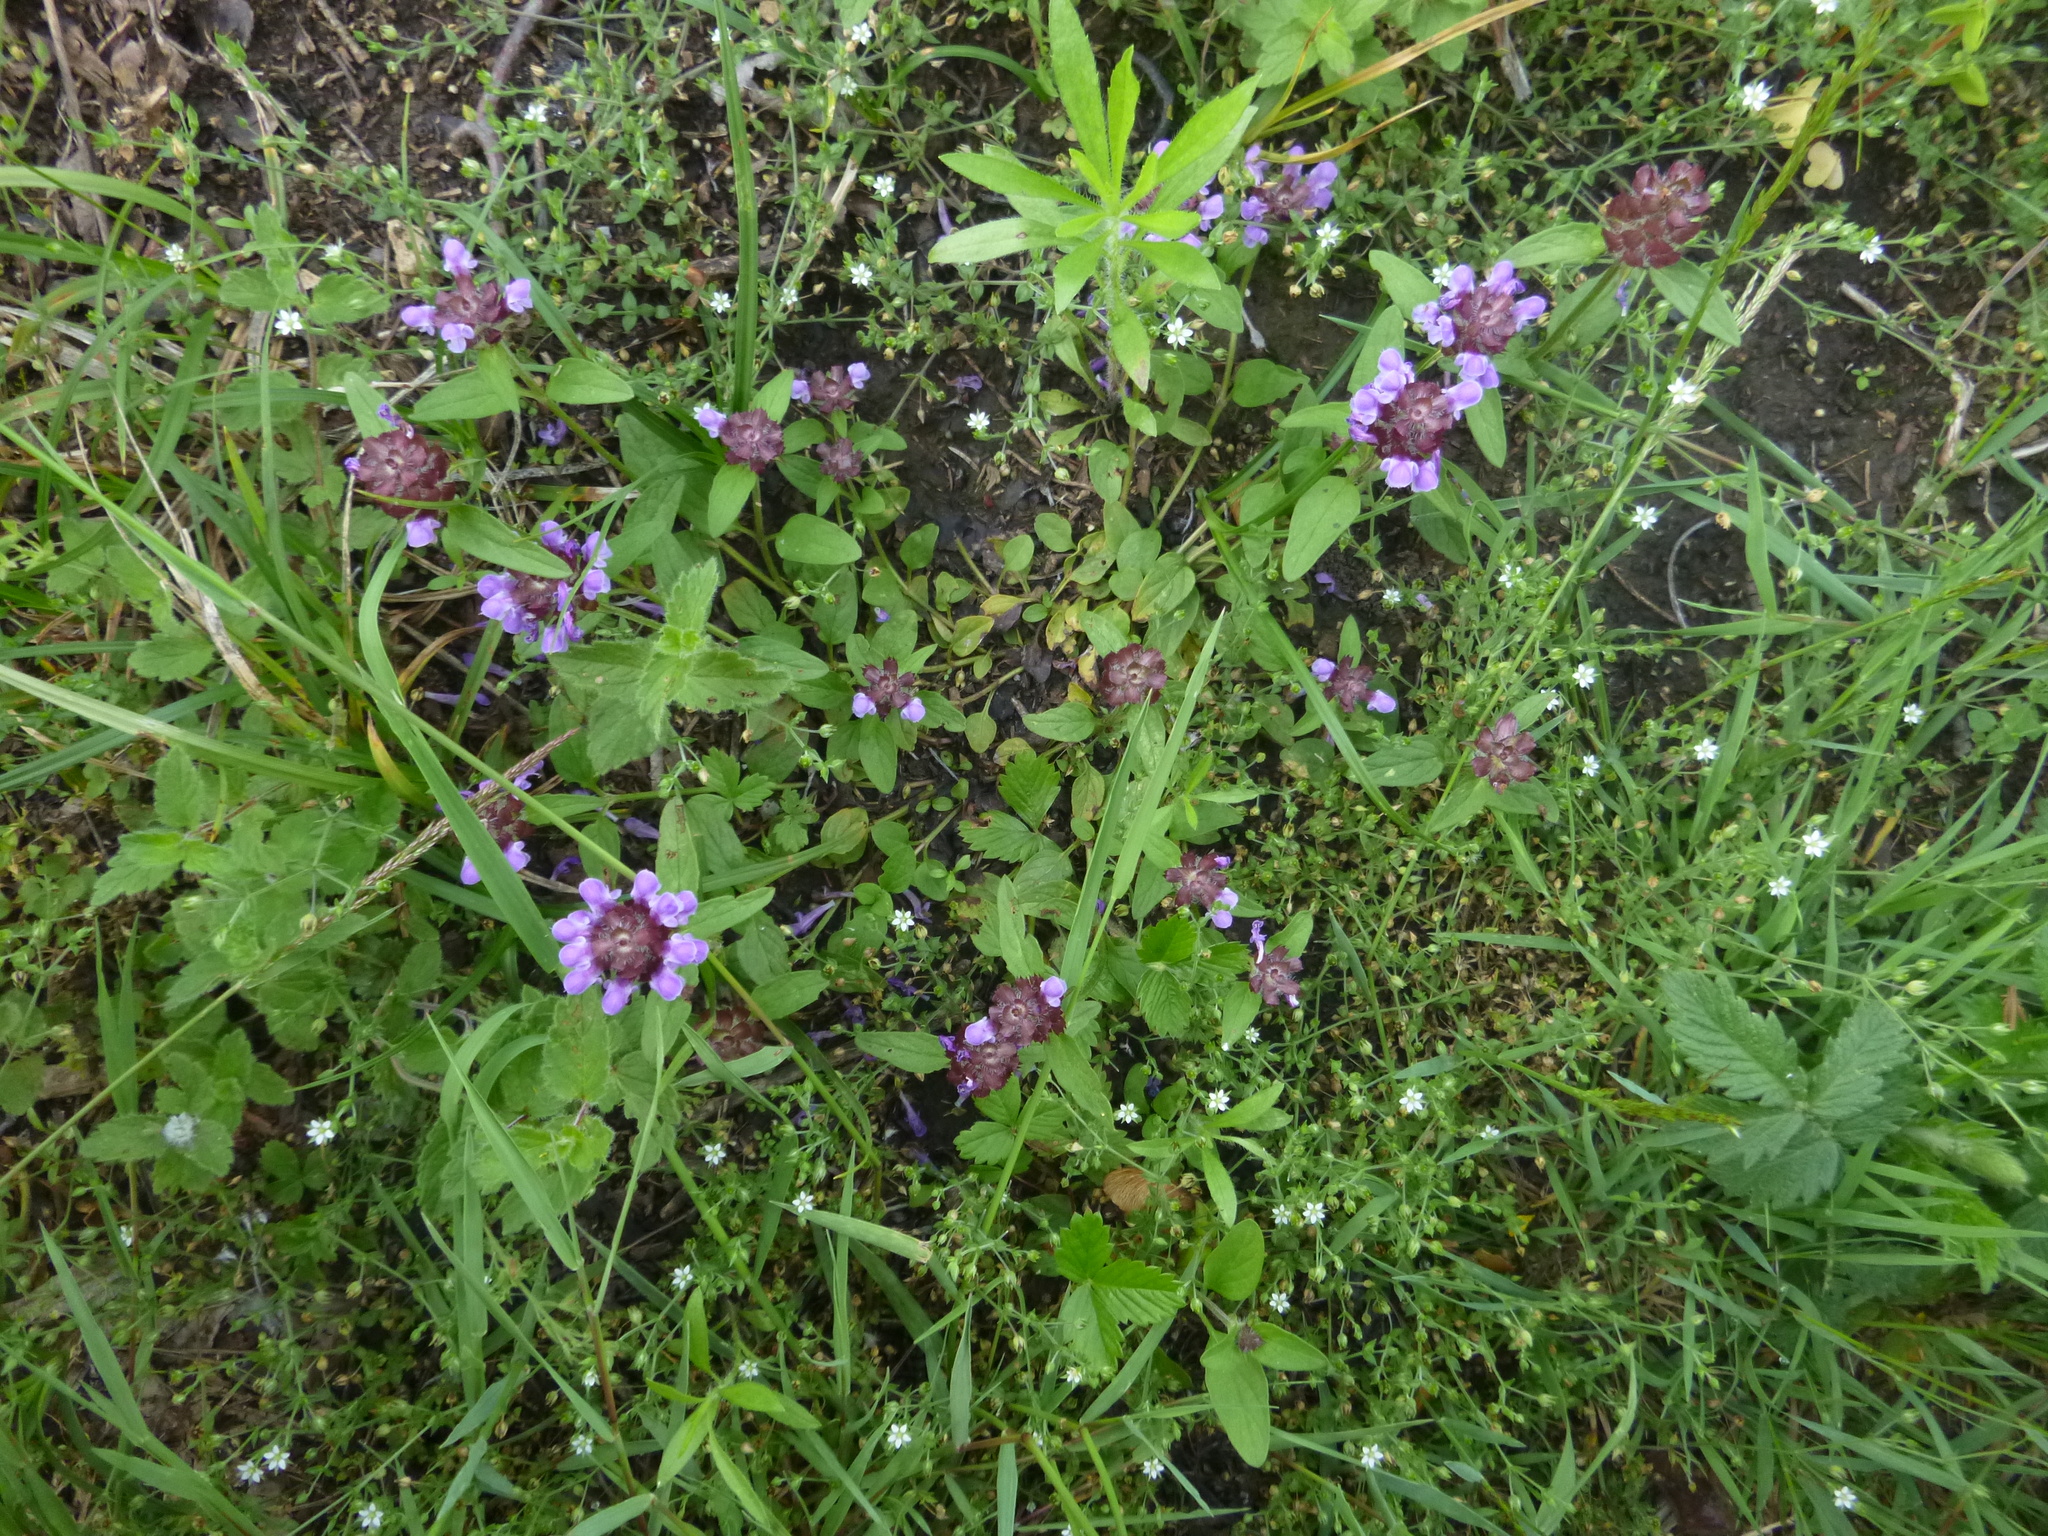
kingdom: Plantae
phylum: Tracheophyta
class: Magnoliopsida
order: Lamiales
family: Lamiaceae
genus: Prunella
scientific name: Prunella vulgaris
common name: Heal-all
